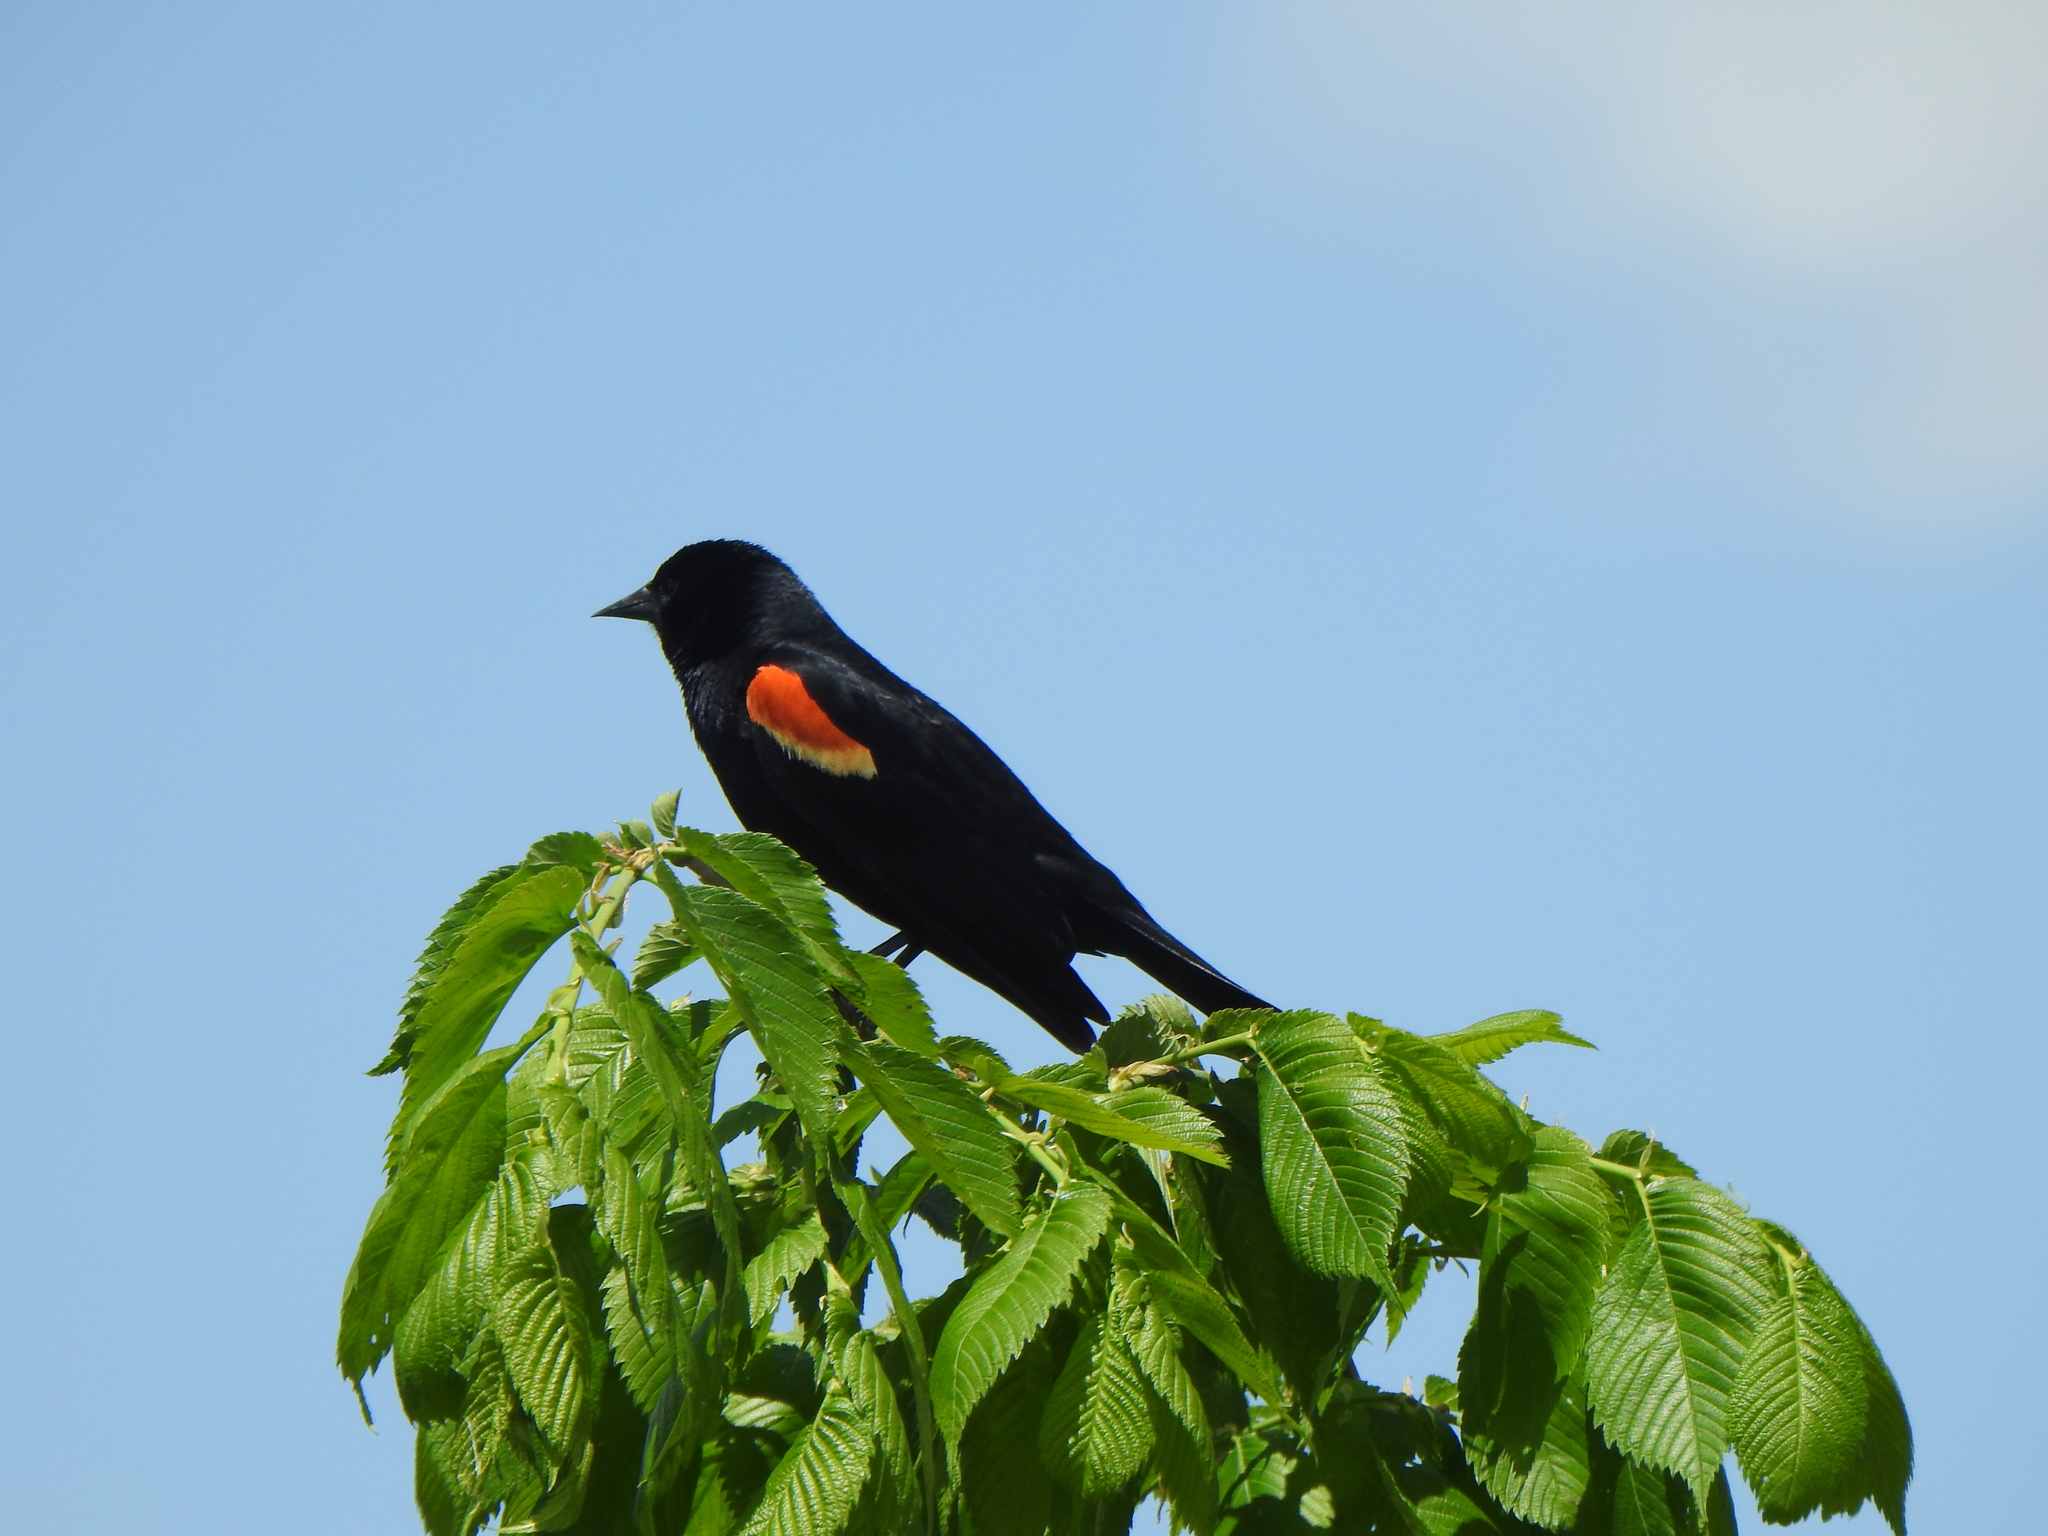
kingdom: Animalia
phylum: Chordata
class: Aves
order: Passeriformes
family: Icteridae
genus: Agelaius
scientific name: Agelaius phoeniceus
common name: Red-winged blackbird
